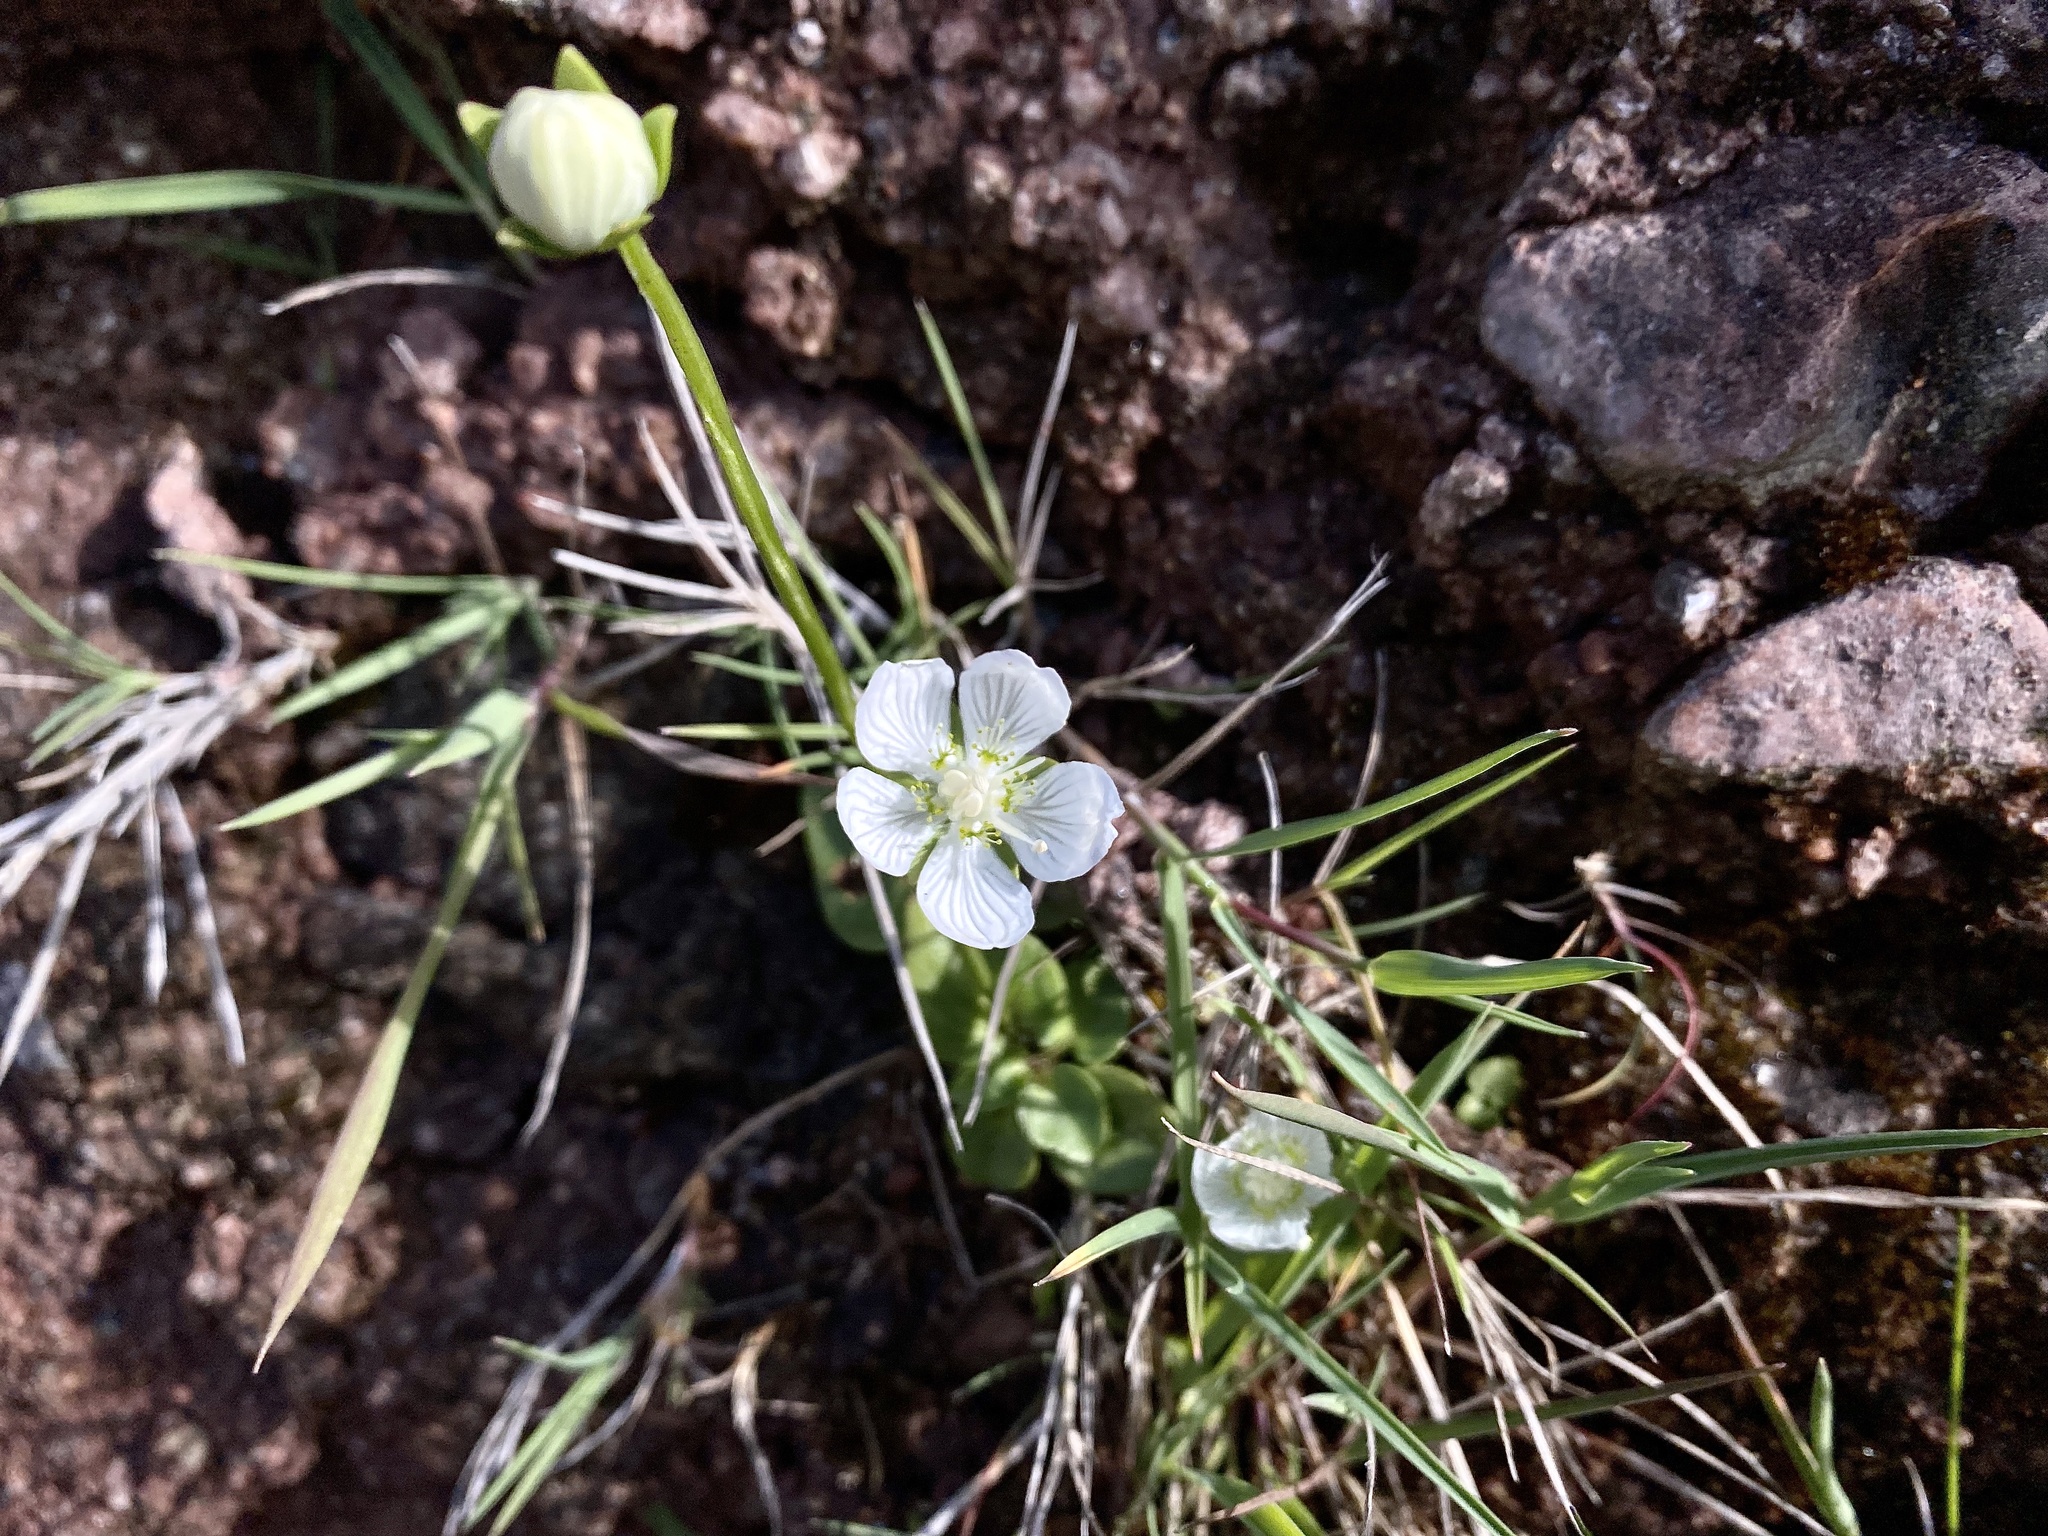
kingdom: Plantae
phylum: Tracheophyta
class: Magnoliopsida
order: Celastrales
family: Parnassiaceae
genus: Parnassia
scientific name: Parnassia palustris
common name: Grass-of-parnassus
